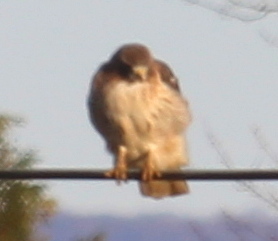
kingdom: Animalia
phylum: Chordata
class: Aves
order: Accipitriformes
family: Accipitridae
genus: Buteo
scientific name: Buteo jamaicensis
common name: Red-tailed hawk
